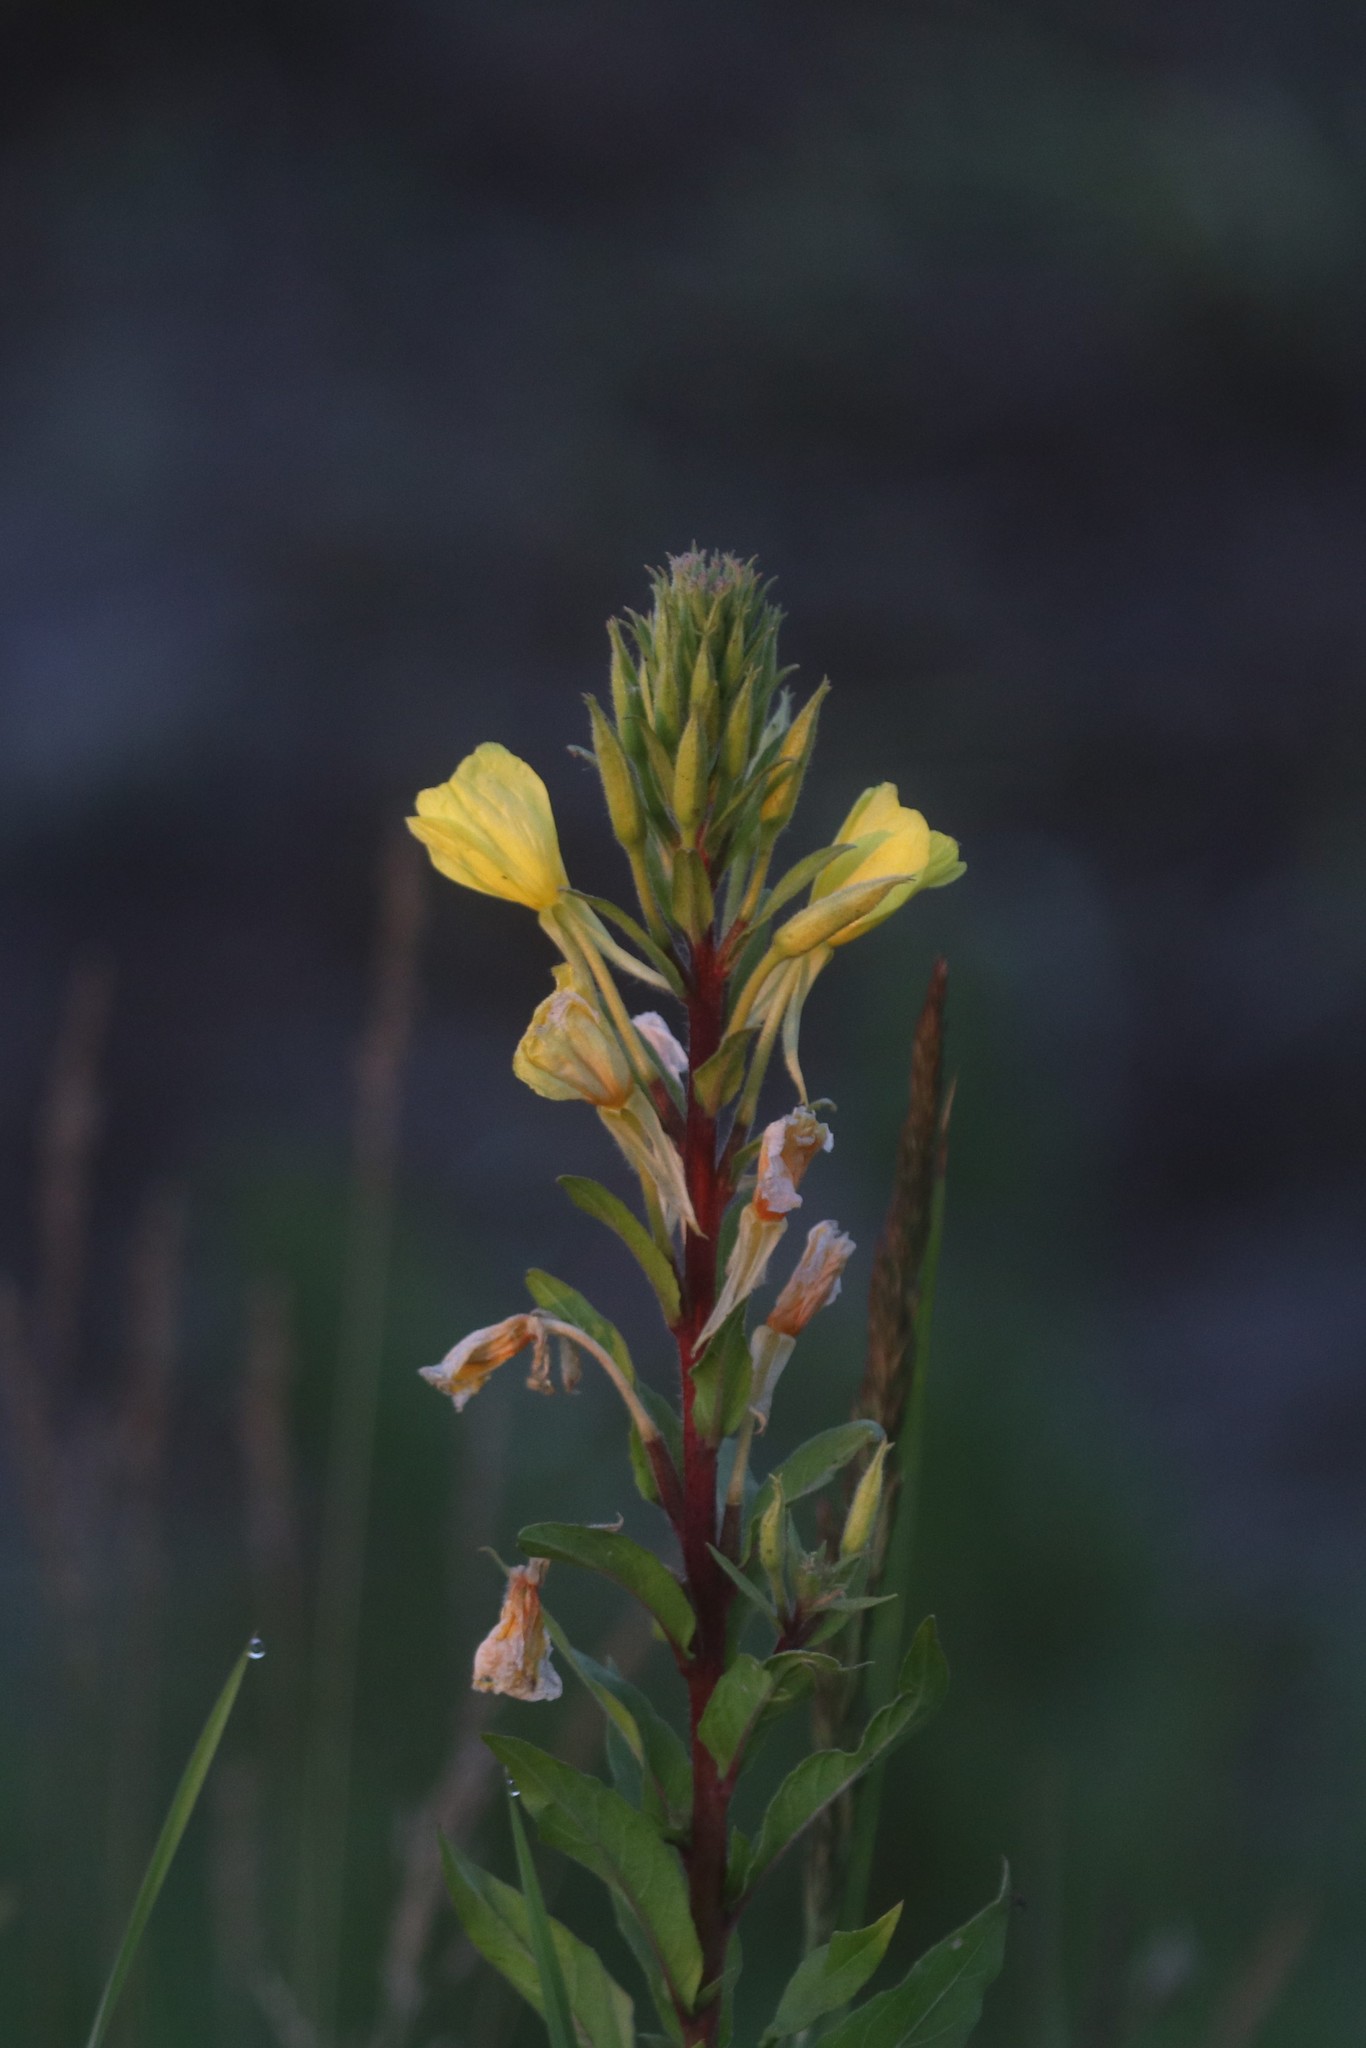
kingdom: Plantae
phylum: Tracheophyta
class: Magnoliopsida
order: Myrtales
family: Onagraceae
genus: Oenothera
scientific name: Oenothera rubricaulis
